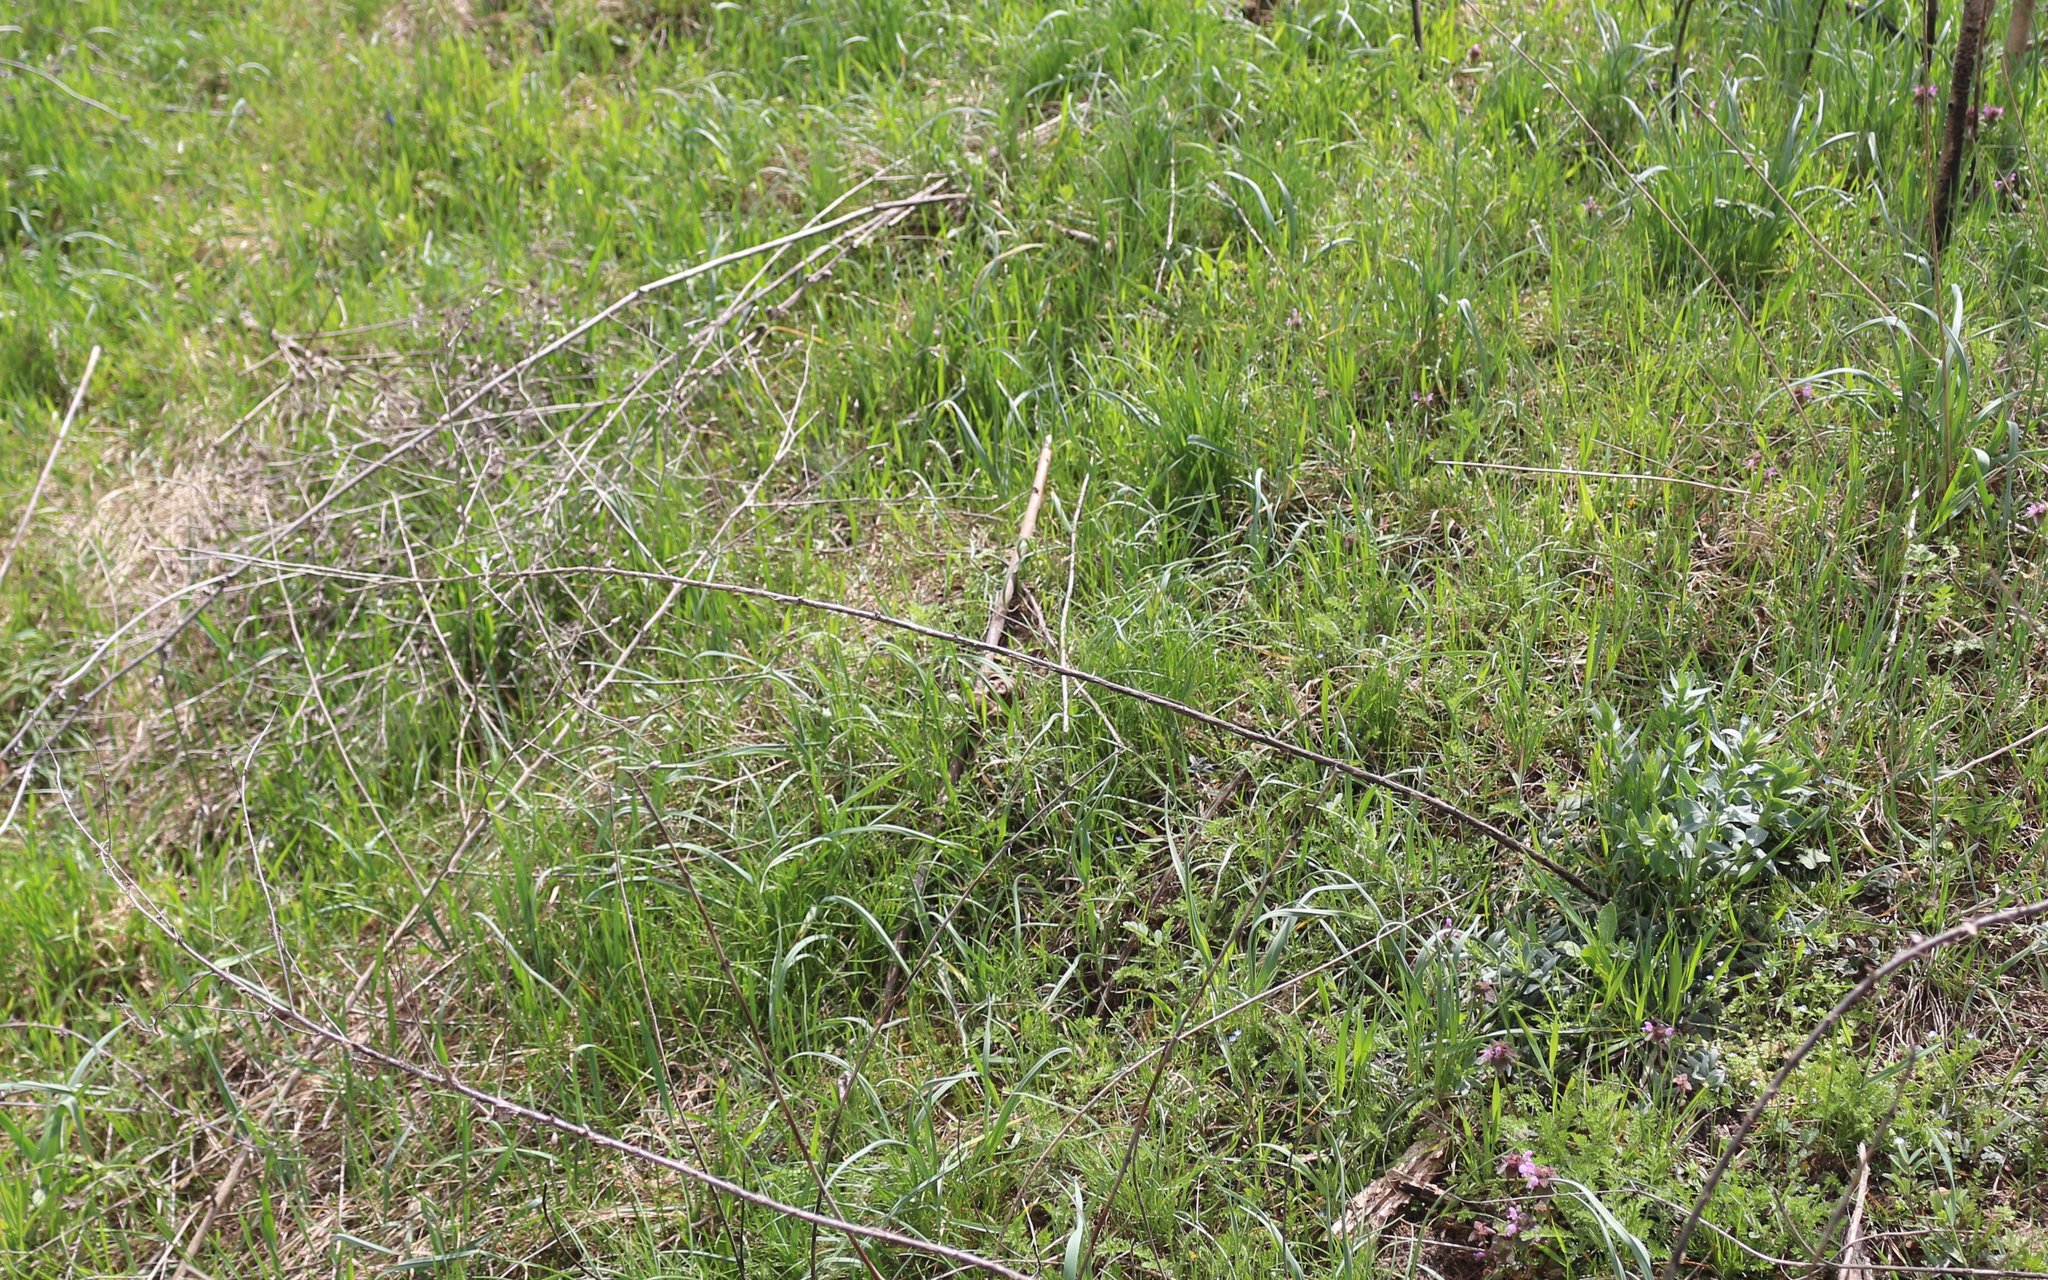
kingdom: Plantae
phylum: Tracheophyta
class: Magnoliopsida
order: Lamiales
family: Plantaginaceae
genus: Linaria
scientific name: Linaria genistifolia
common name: Broomleaf toadflax
